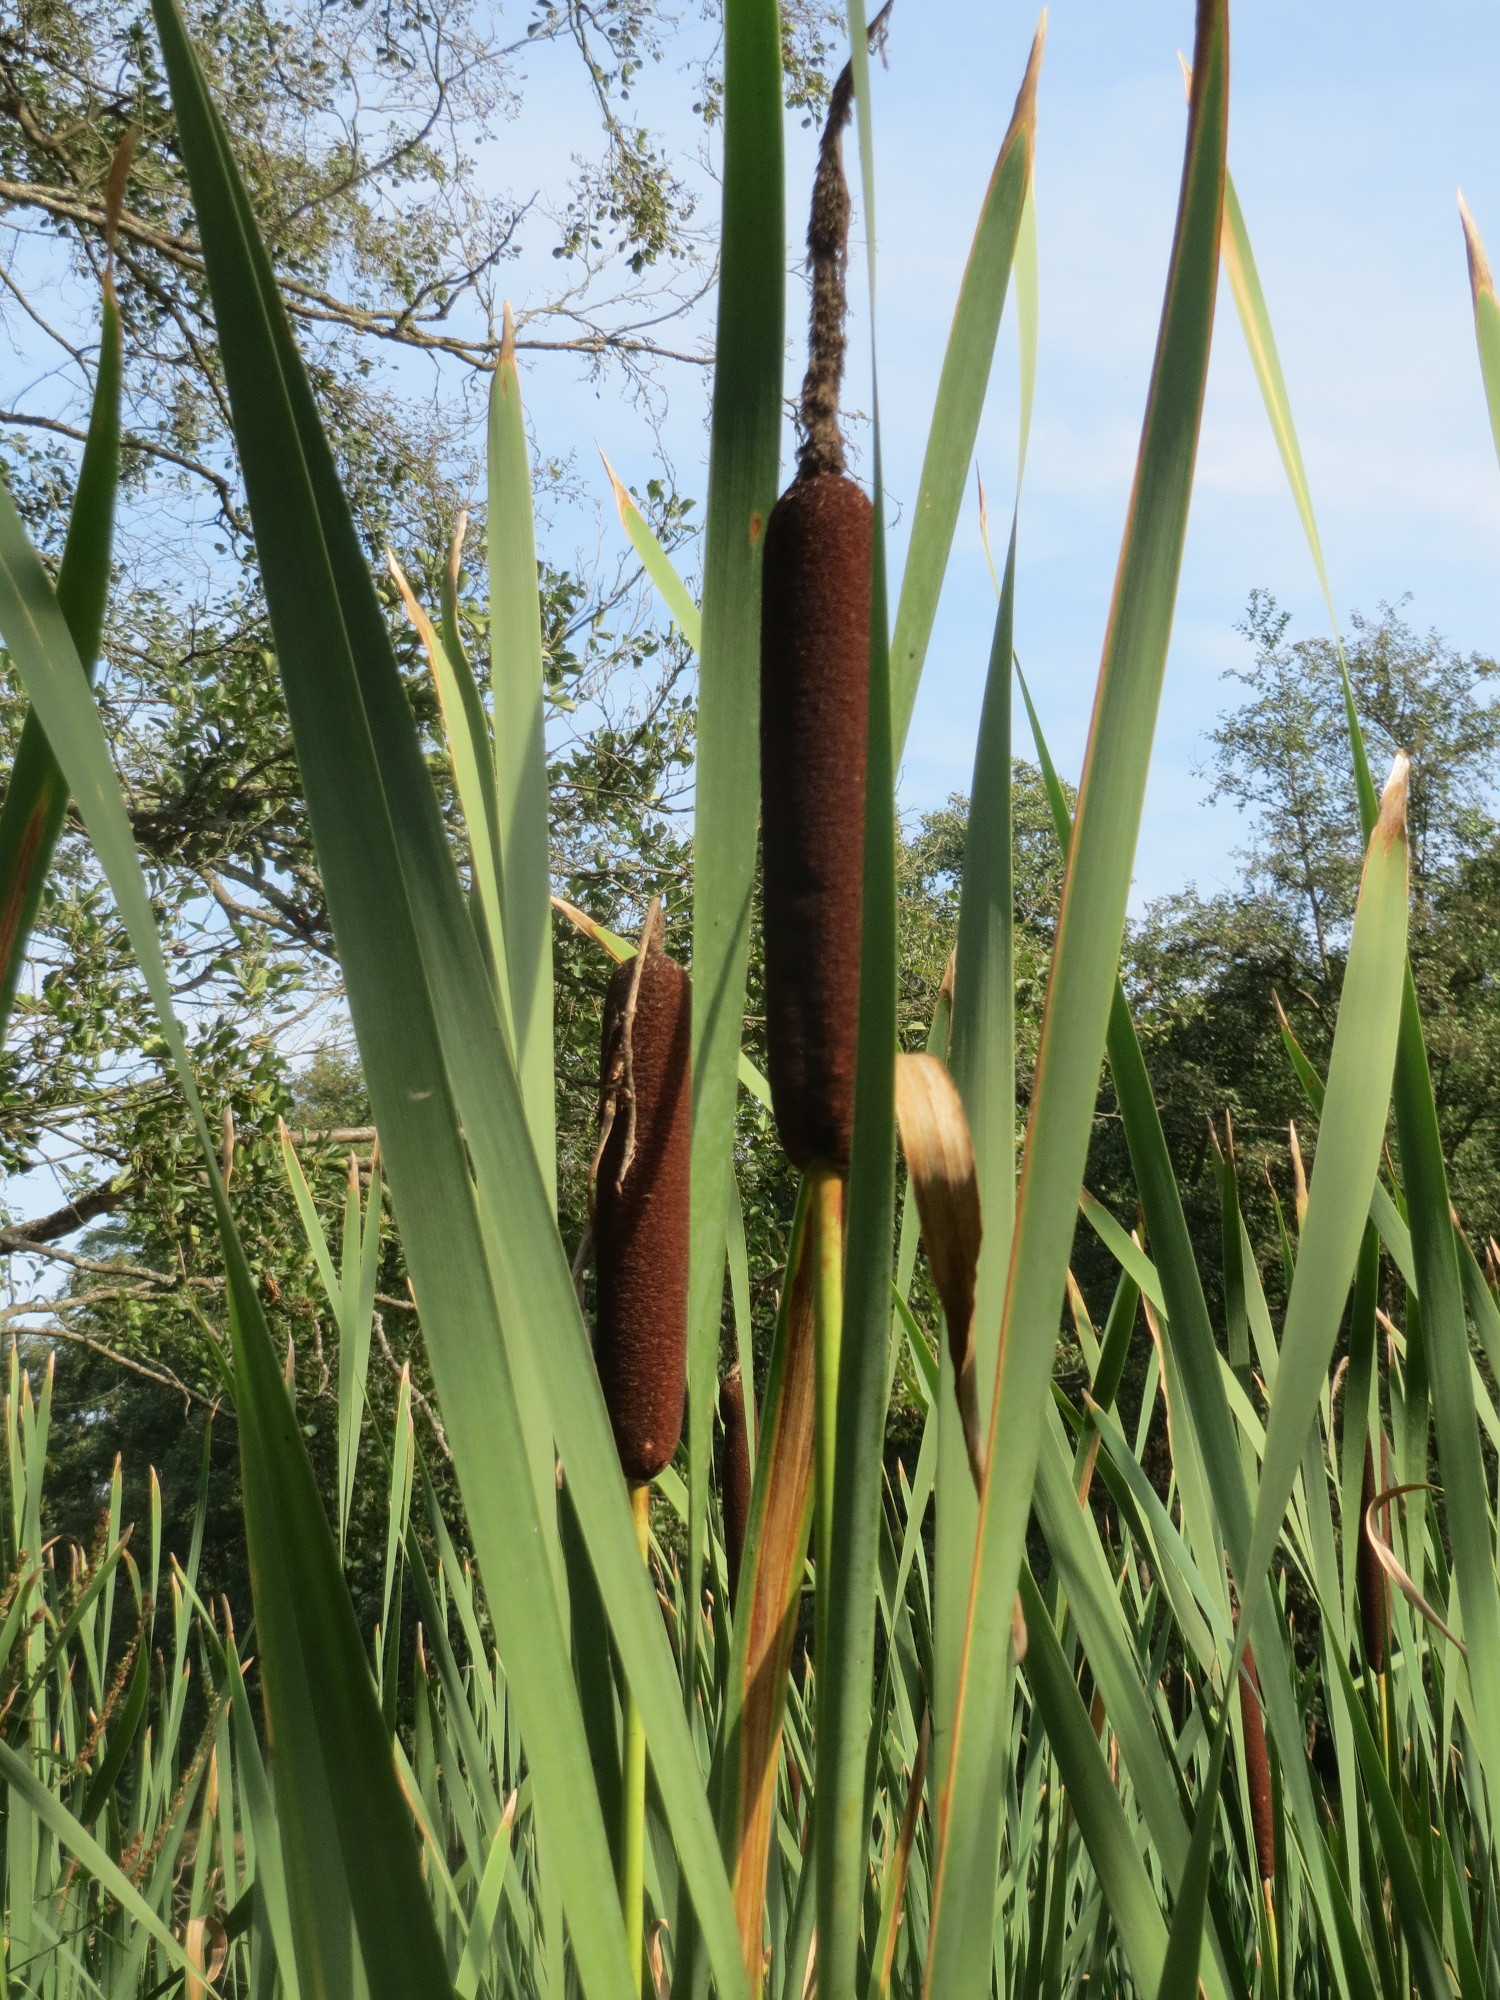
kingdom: Plantae
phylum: Tracheophyta
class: Liliopsida
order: Poales
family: Typhaceae
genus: Typha
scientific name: Typha latifolia
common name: Broadleaf cattail
